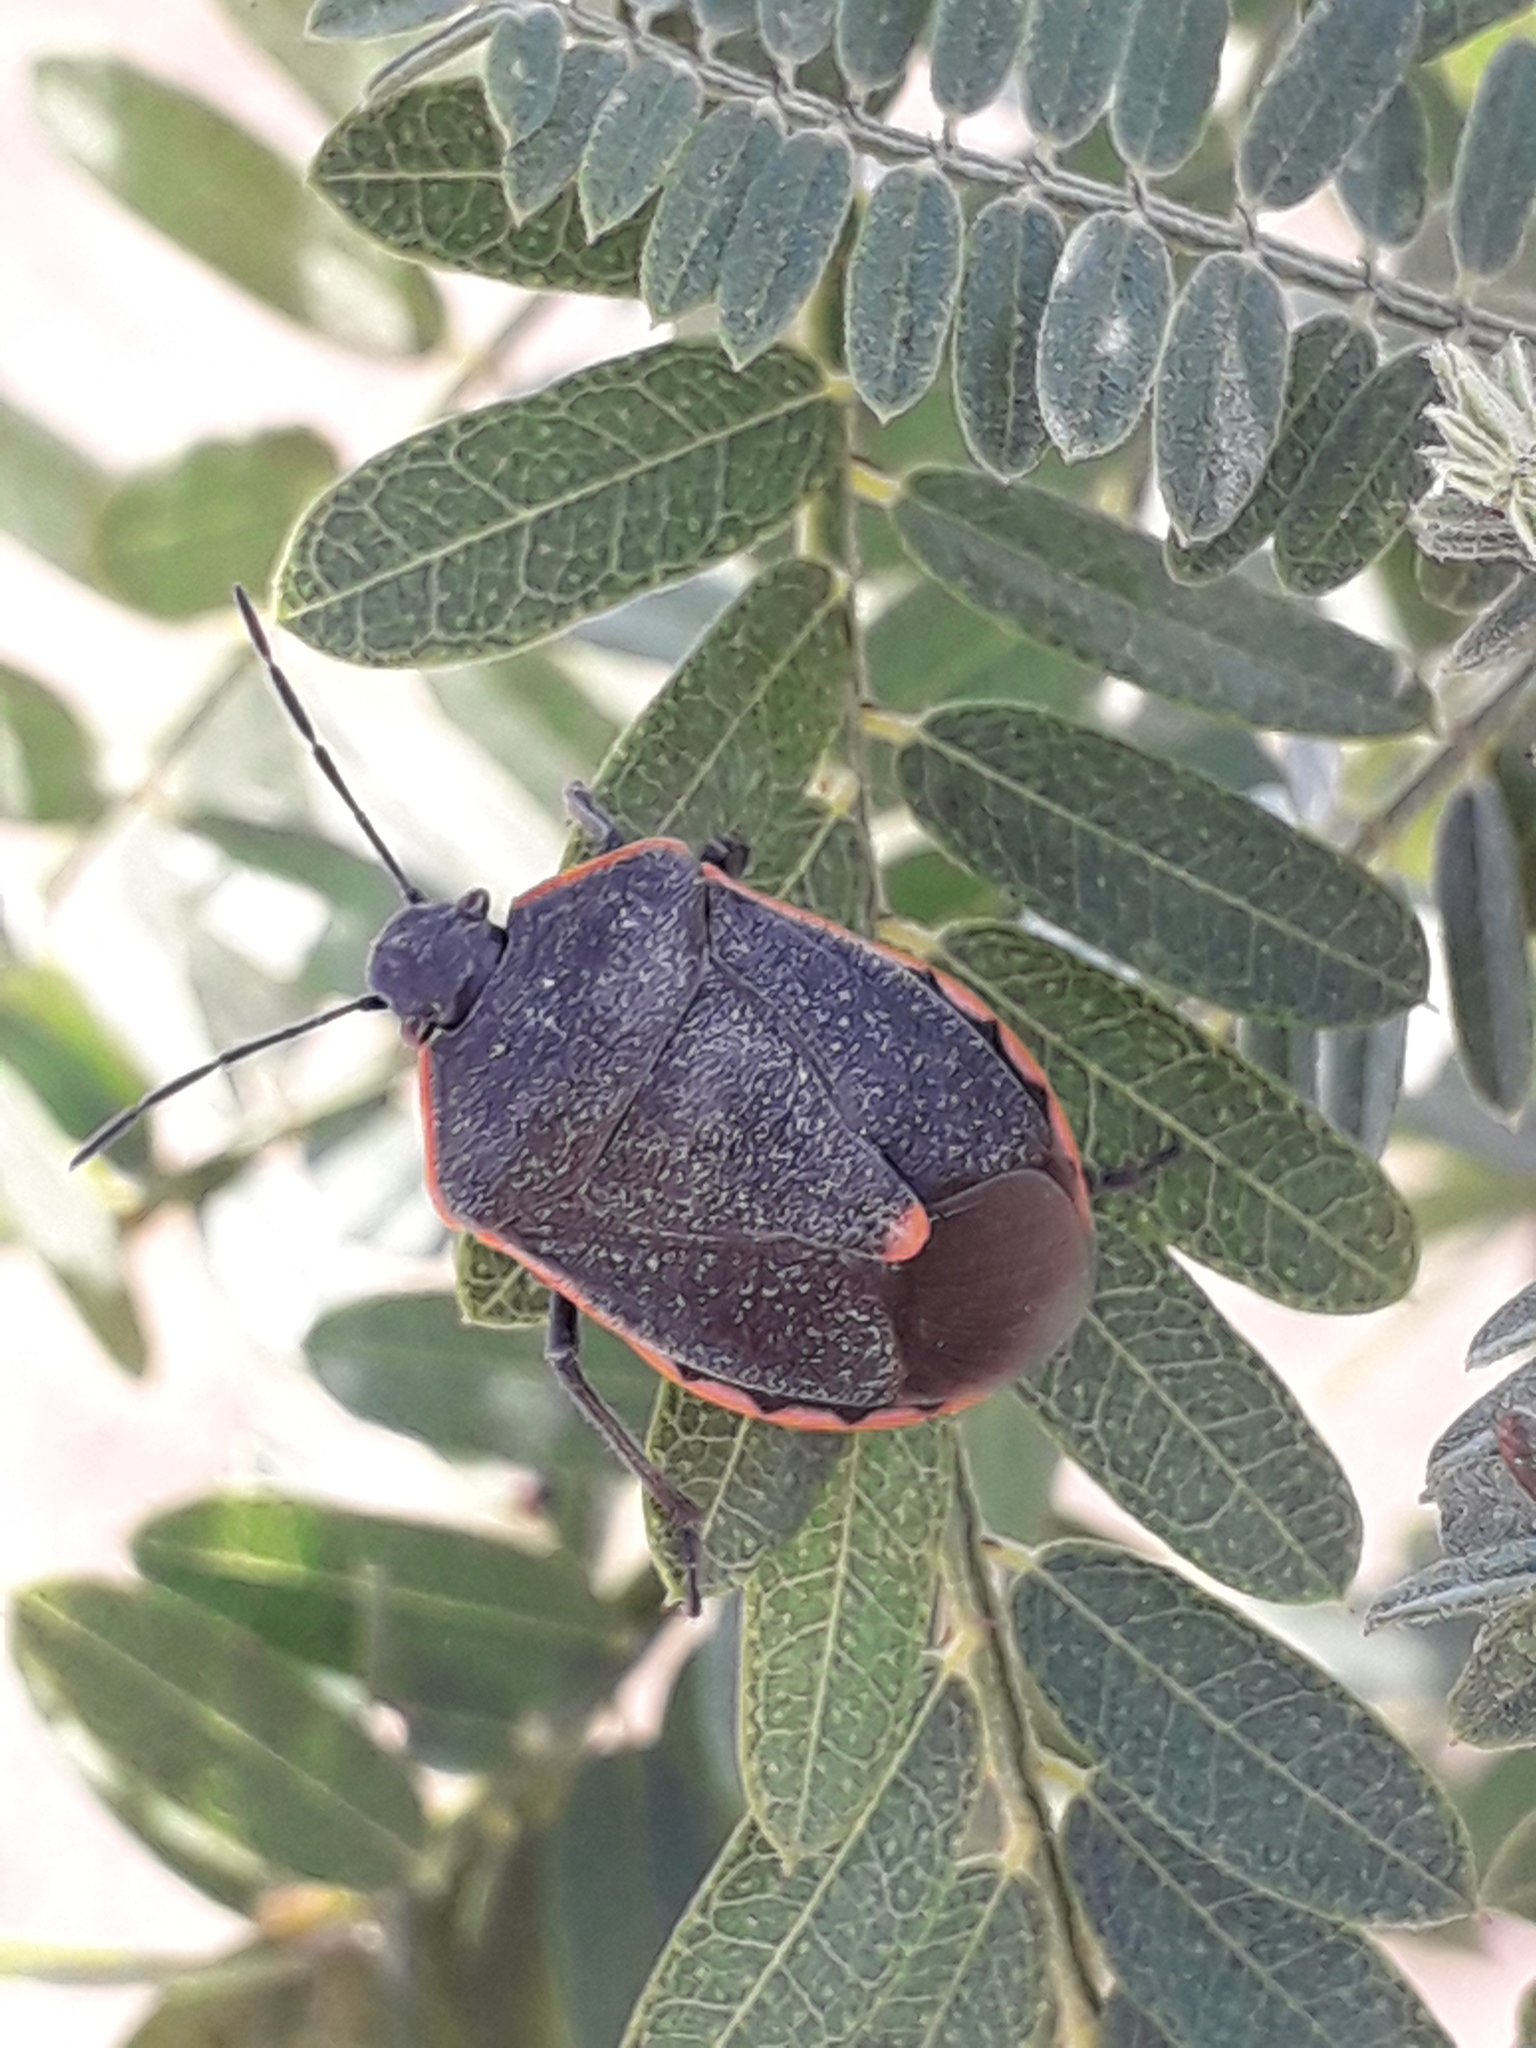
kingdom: Animalia
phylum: Arthropoda
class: Insecta
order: Hemiptera
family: Pentatomidae
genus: Chlorochroa
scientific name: Chlorochroa ligata
